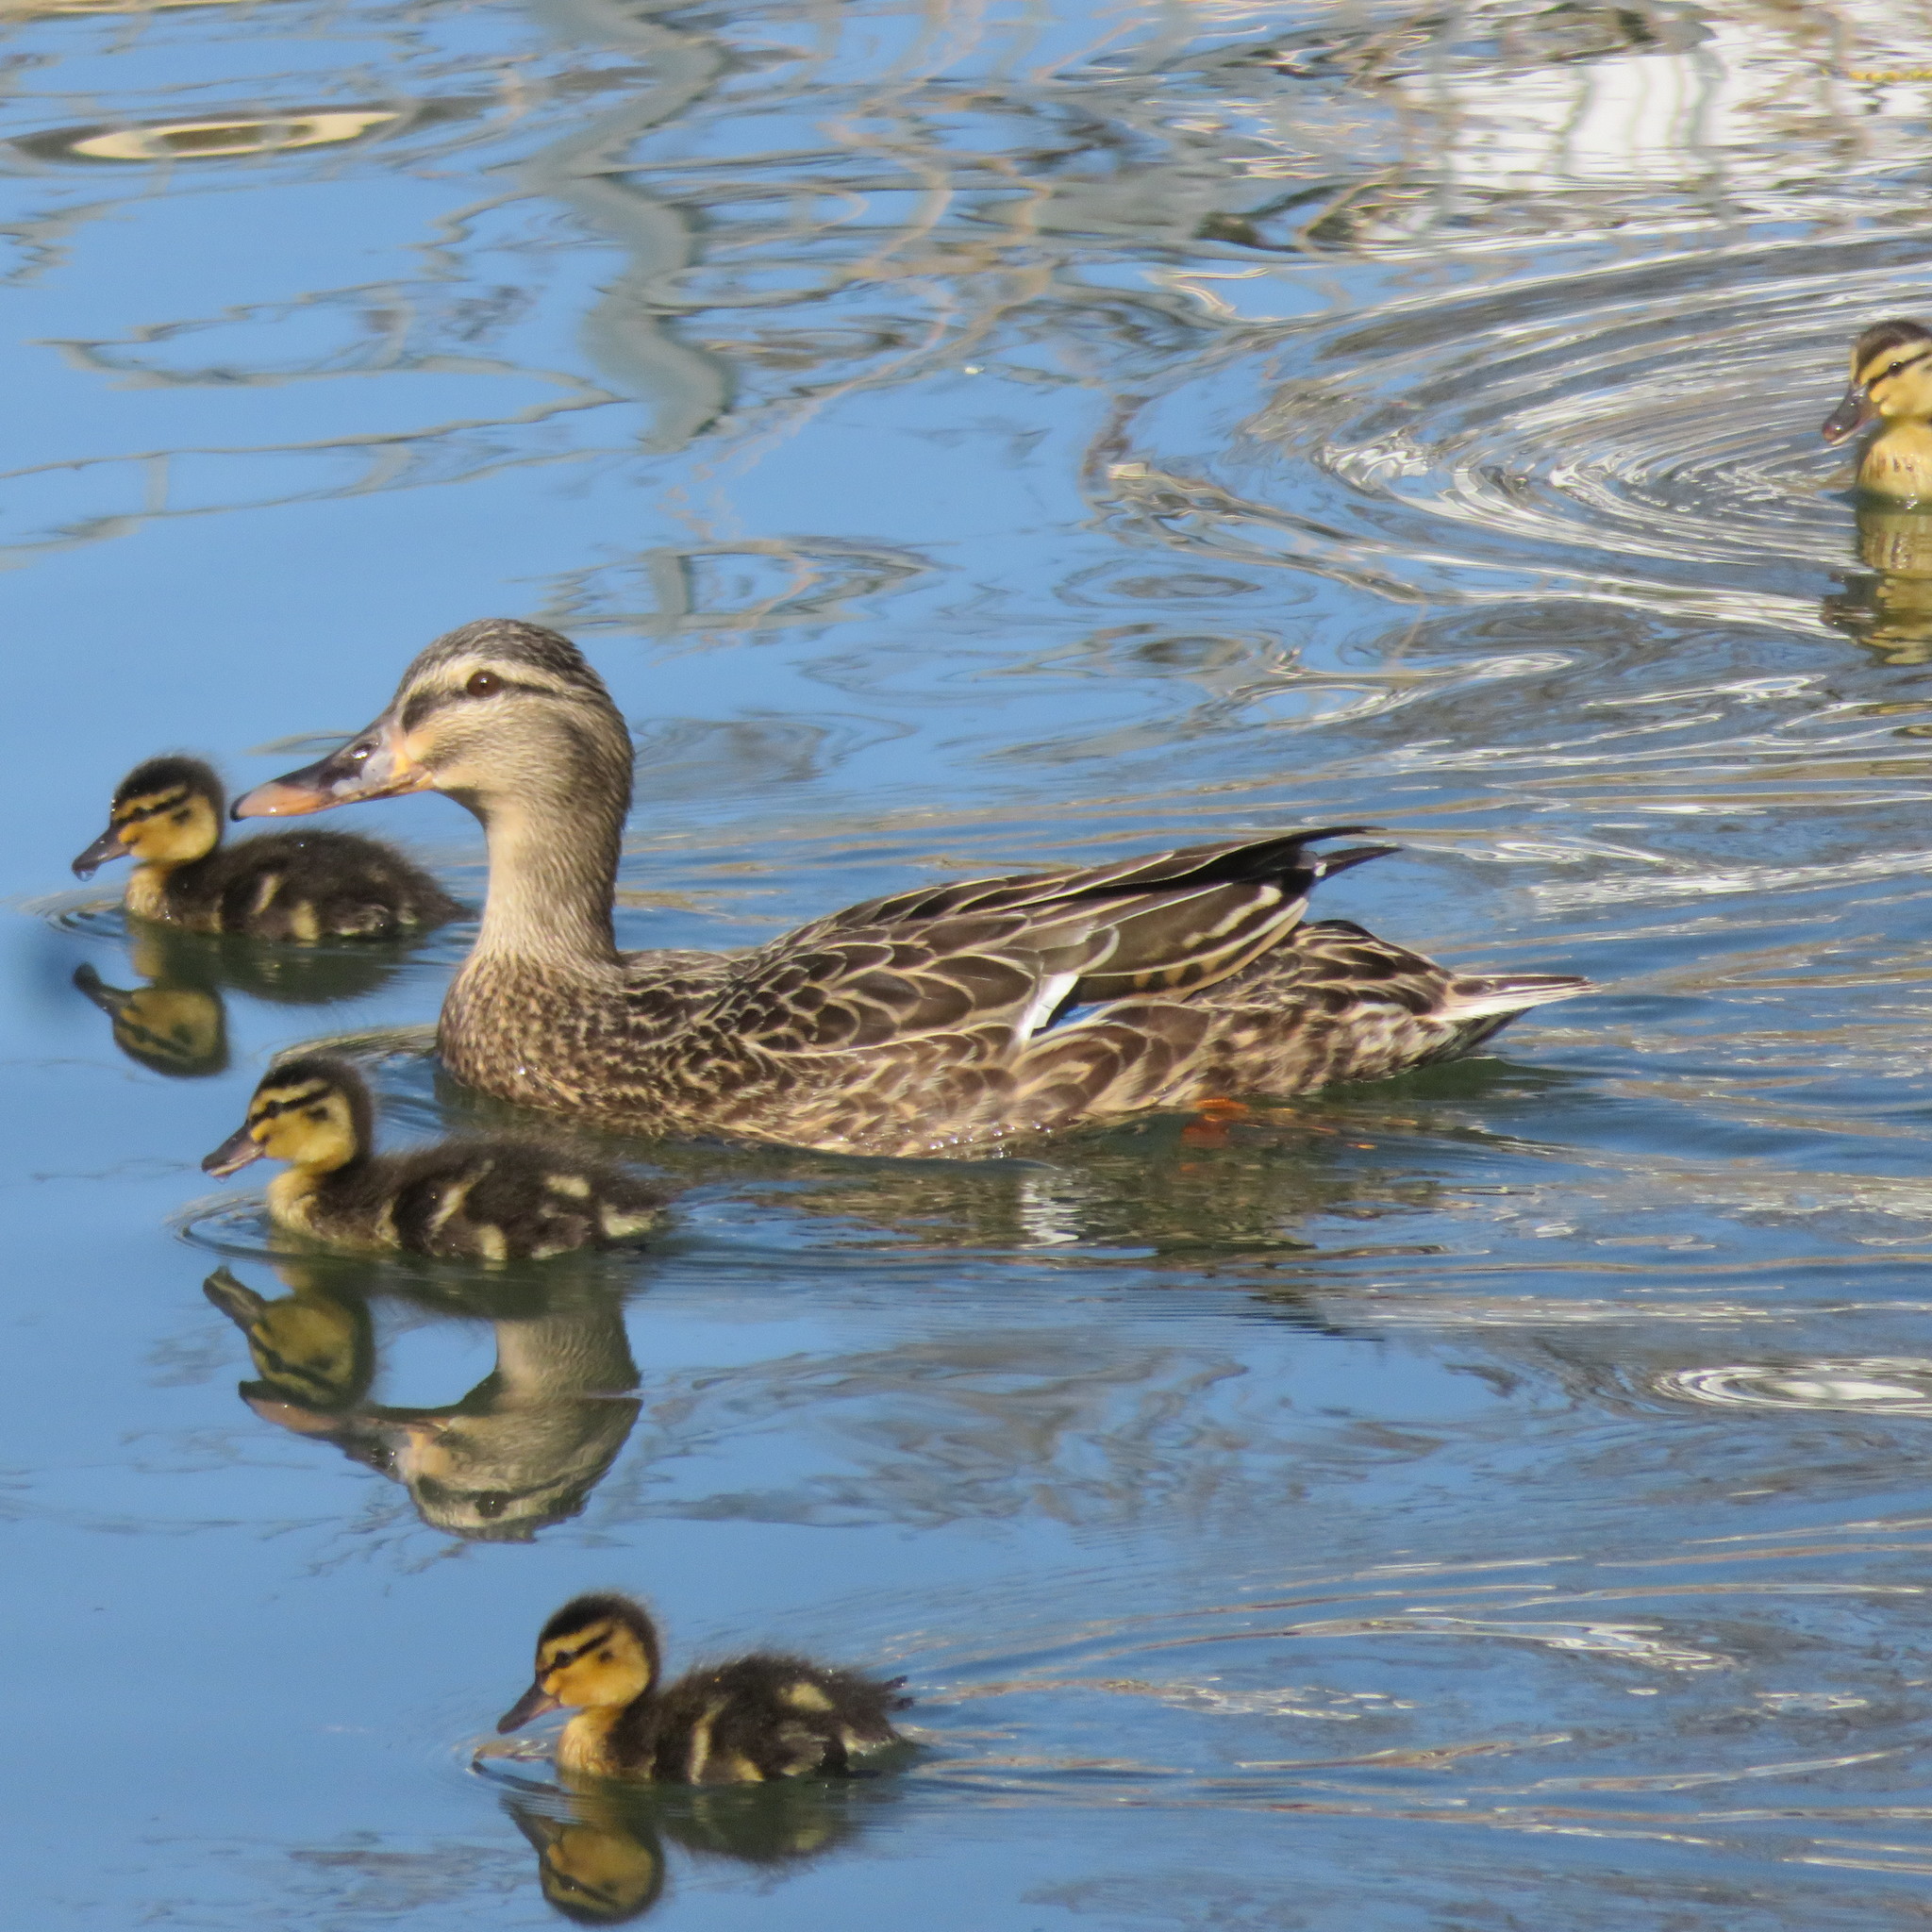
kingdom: Animalia
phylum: Chordata
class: Aves
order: Anseriformes
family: Anatidae
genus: Anas
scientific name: Anas
